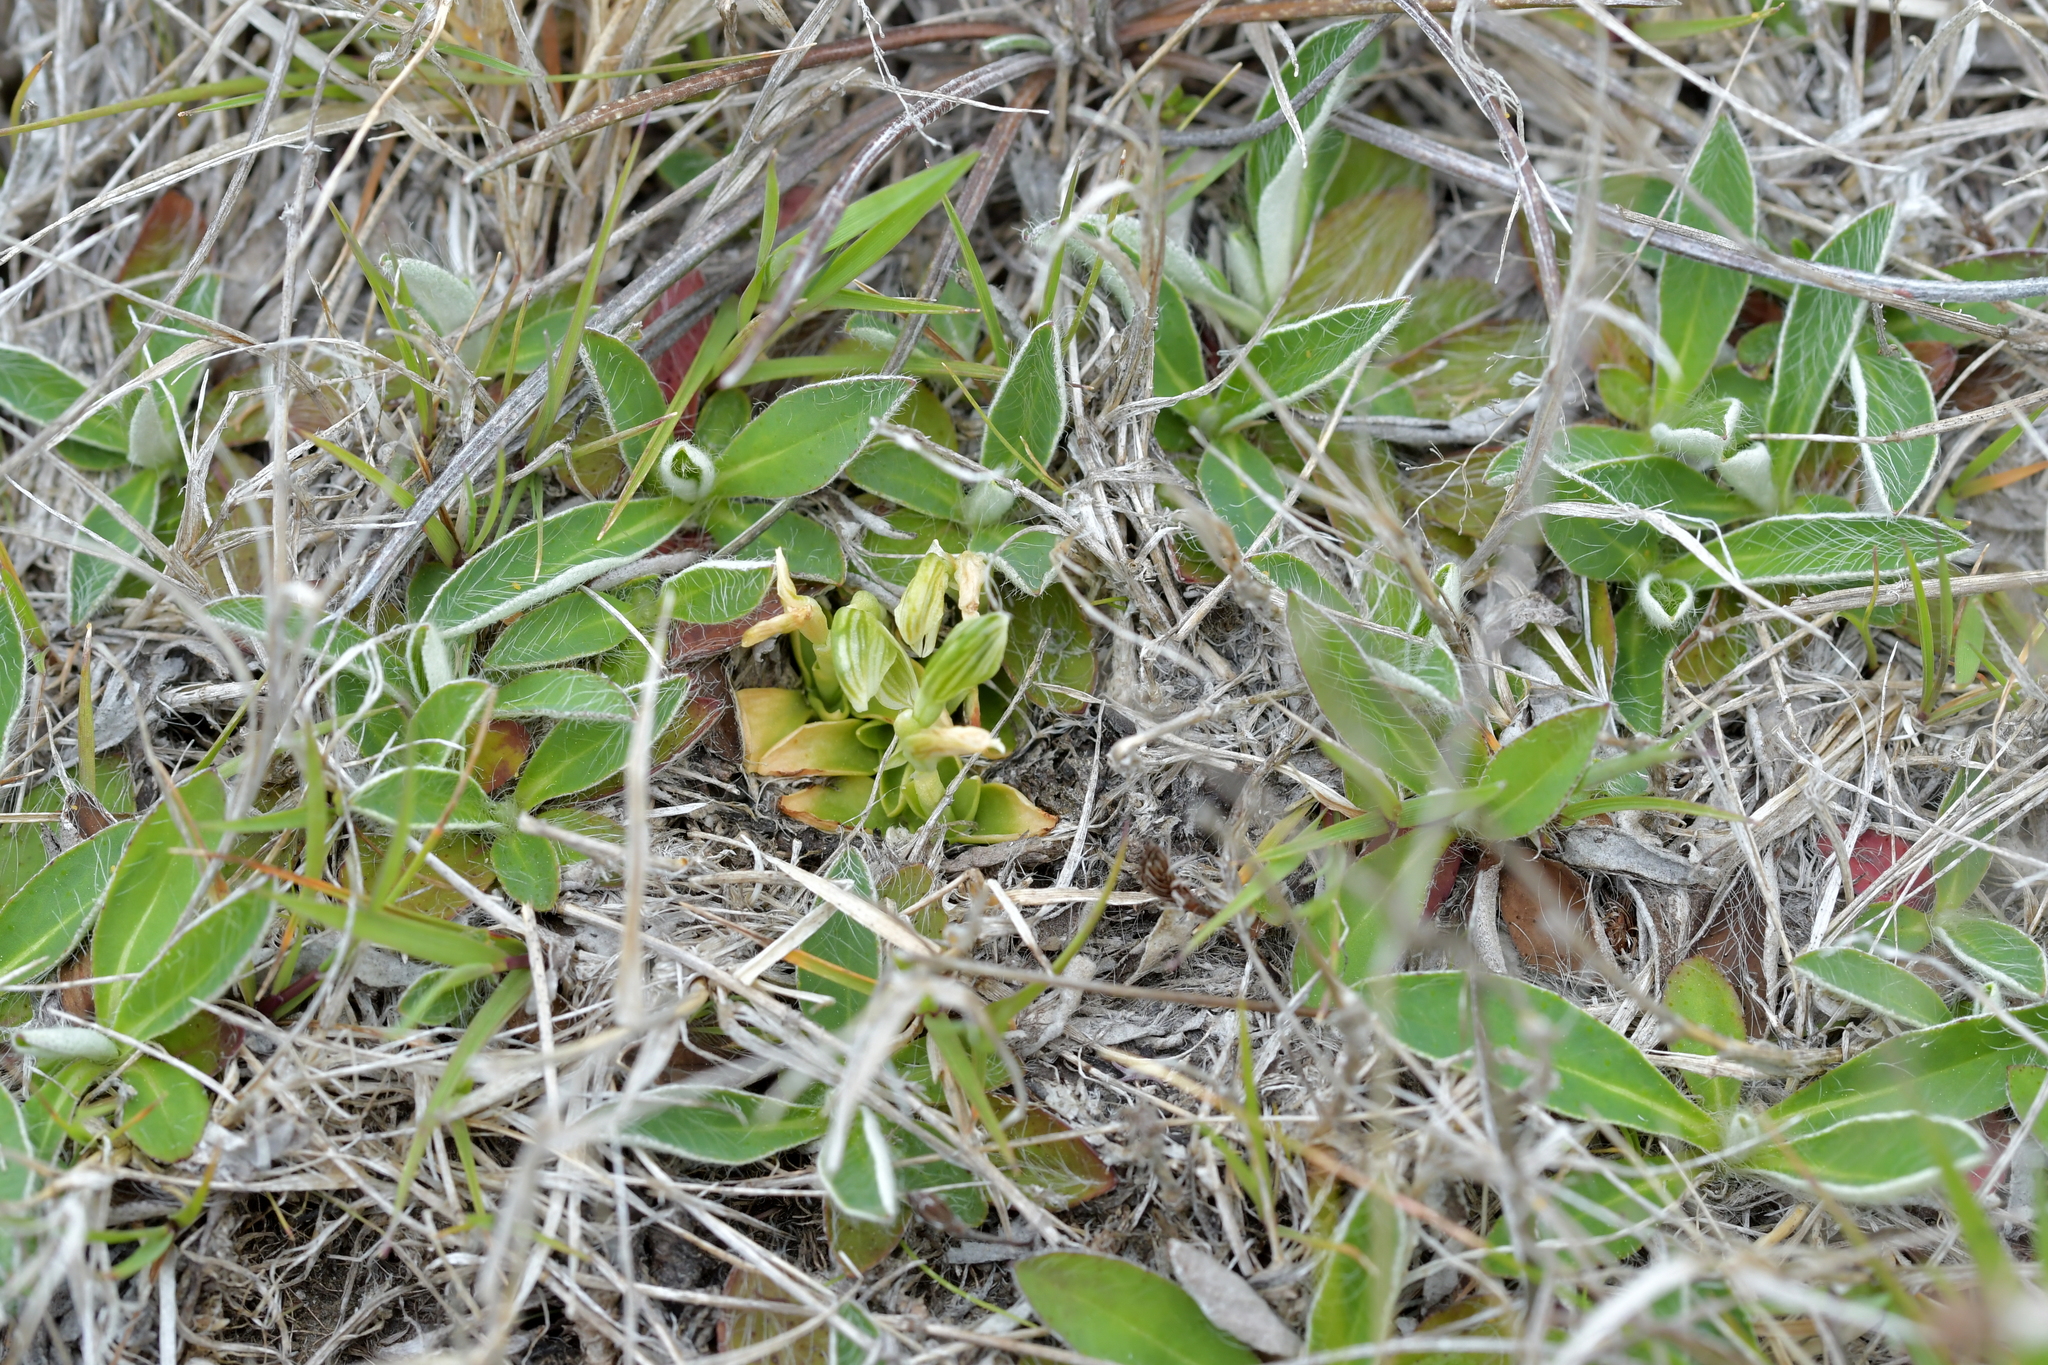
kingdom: Plantae
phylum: Tracheophyta
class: Liliopsida
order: Asparagales
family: Orchidaceae
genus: Pterostylis
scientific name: Pterostylis tanypoda
